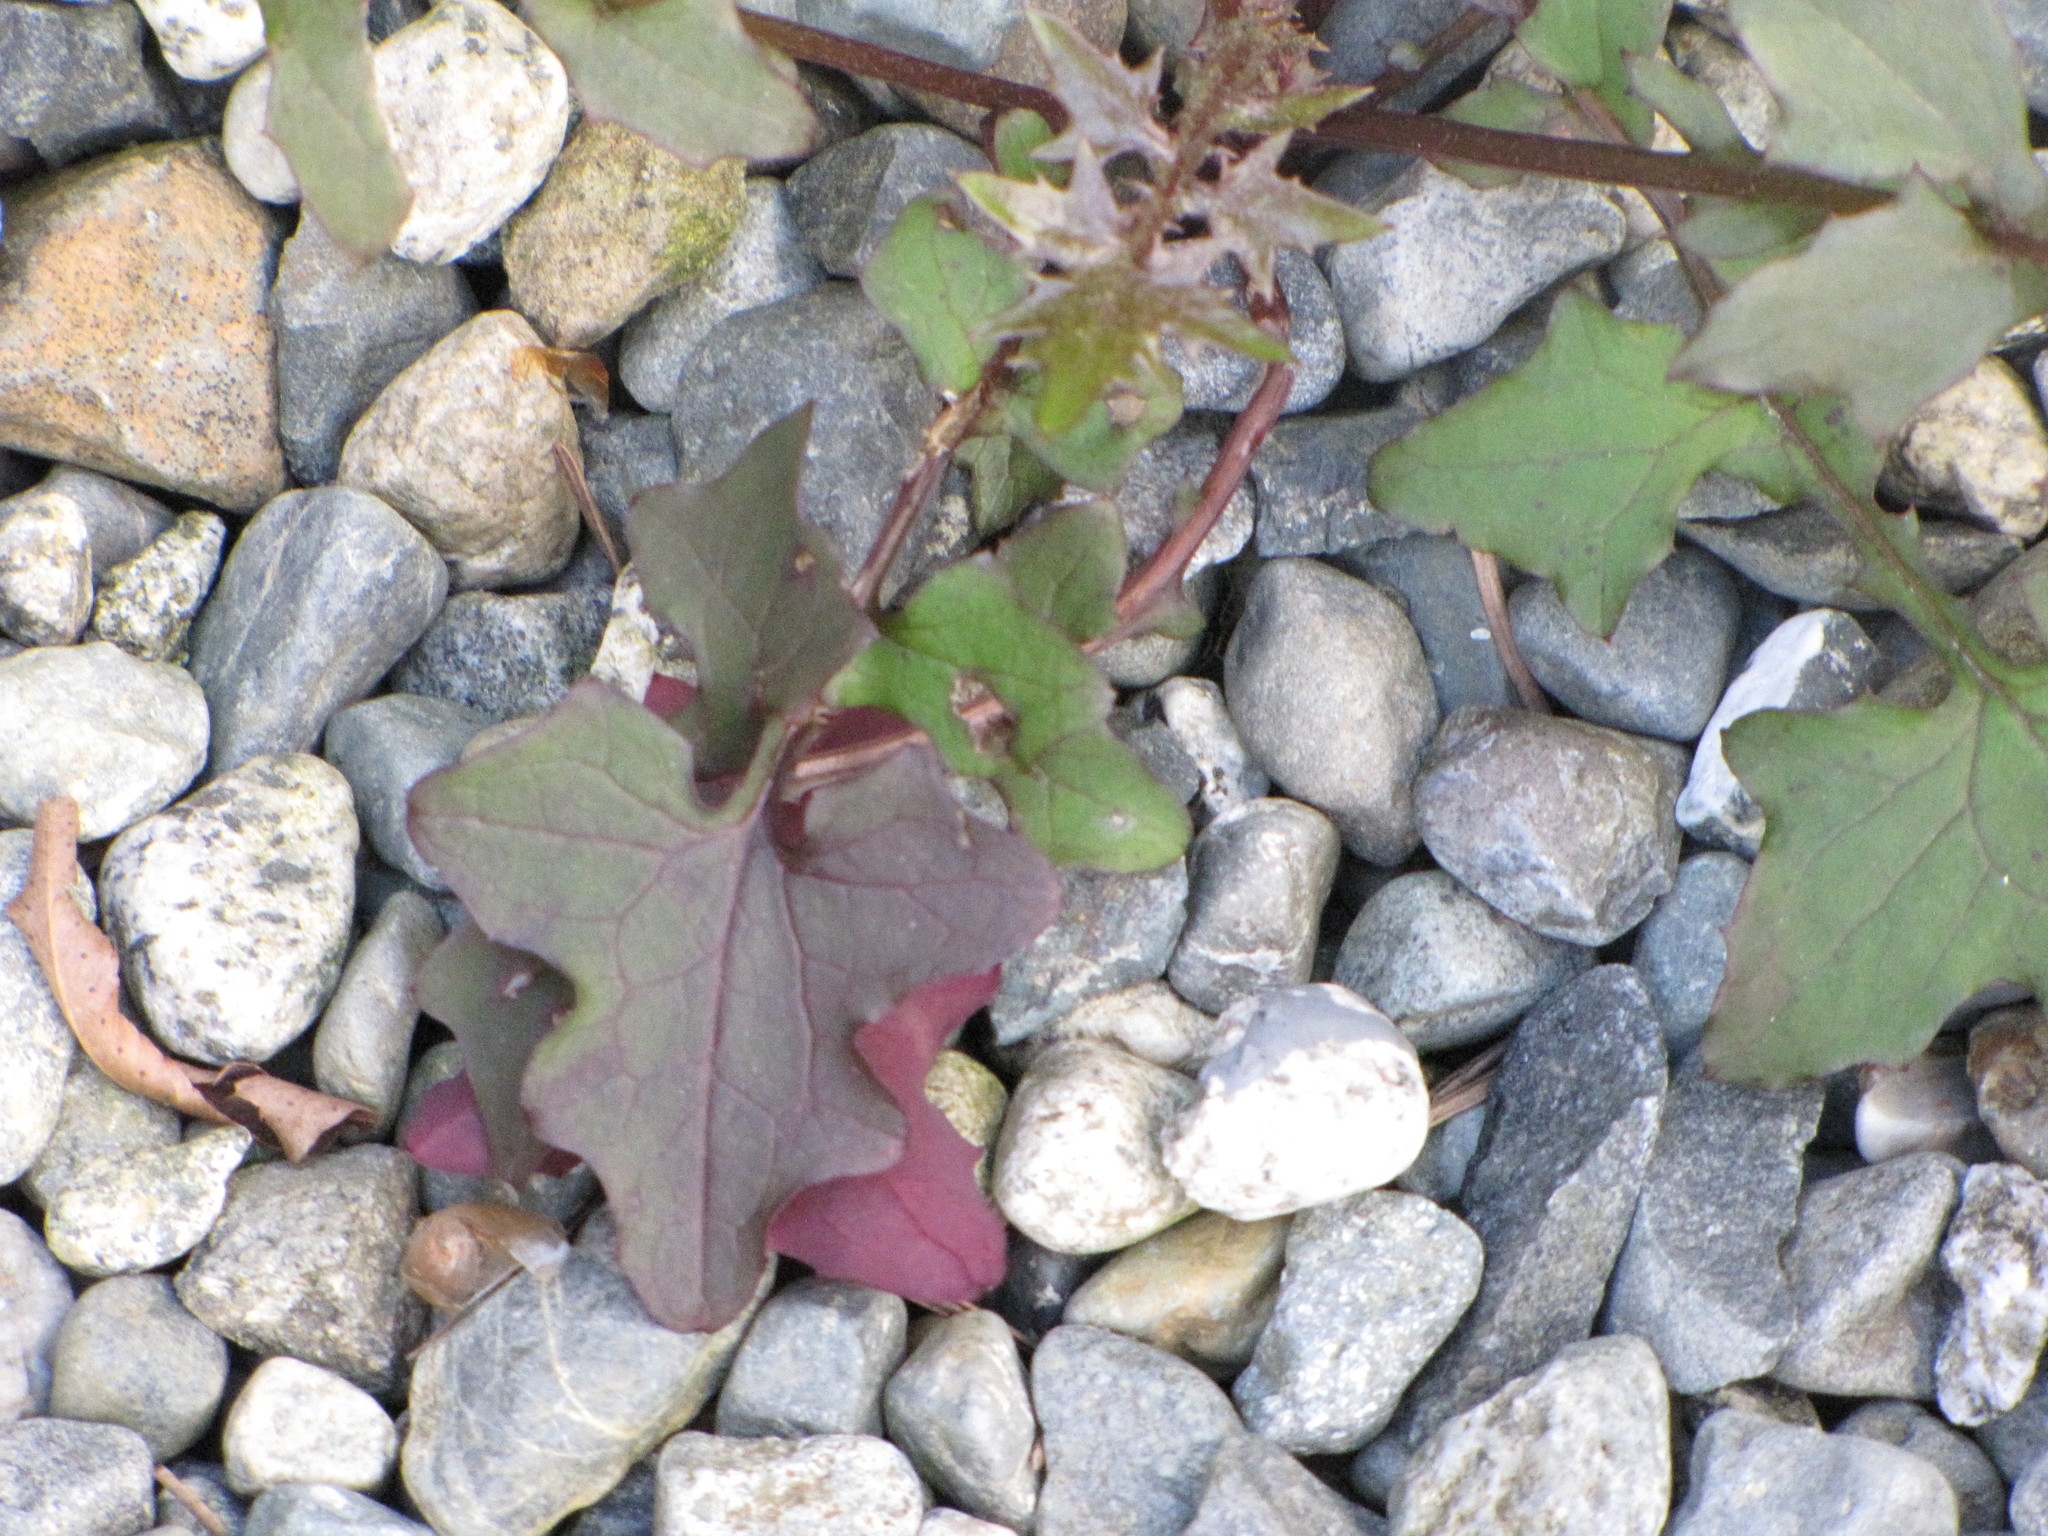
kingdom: Plantae
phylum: Tracheophyta
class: Magnoliopsida
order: Asterales
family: Asteraceae
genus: Mycelis
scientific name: Mycelis muralis
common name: Wall lettuce
